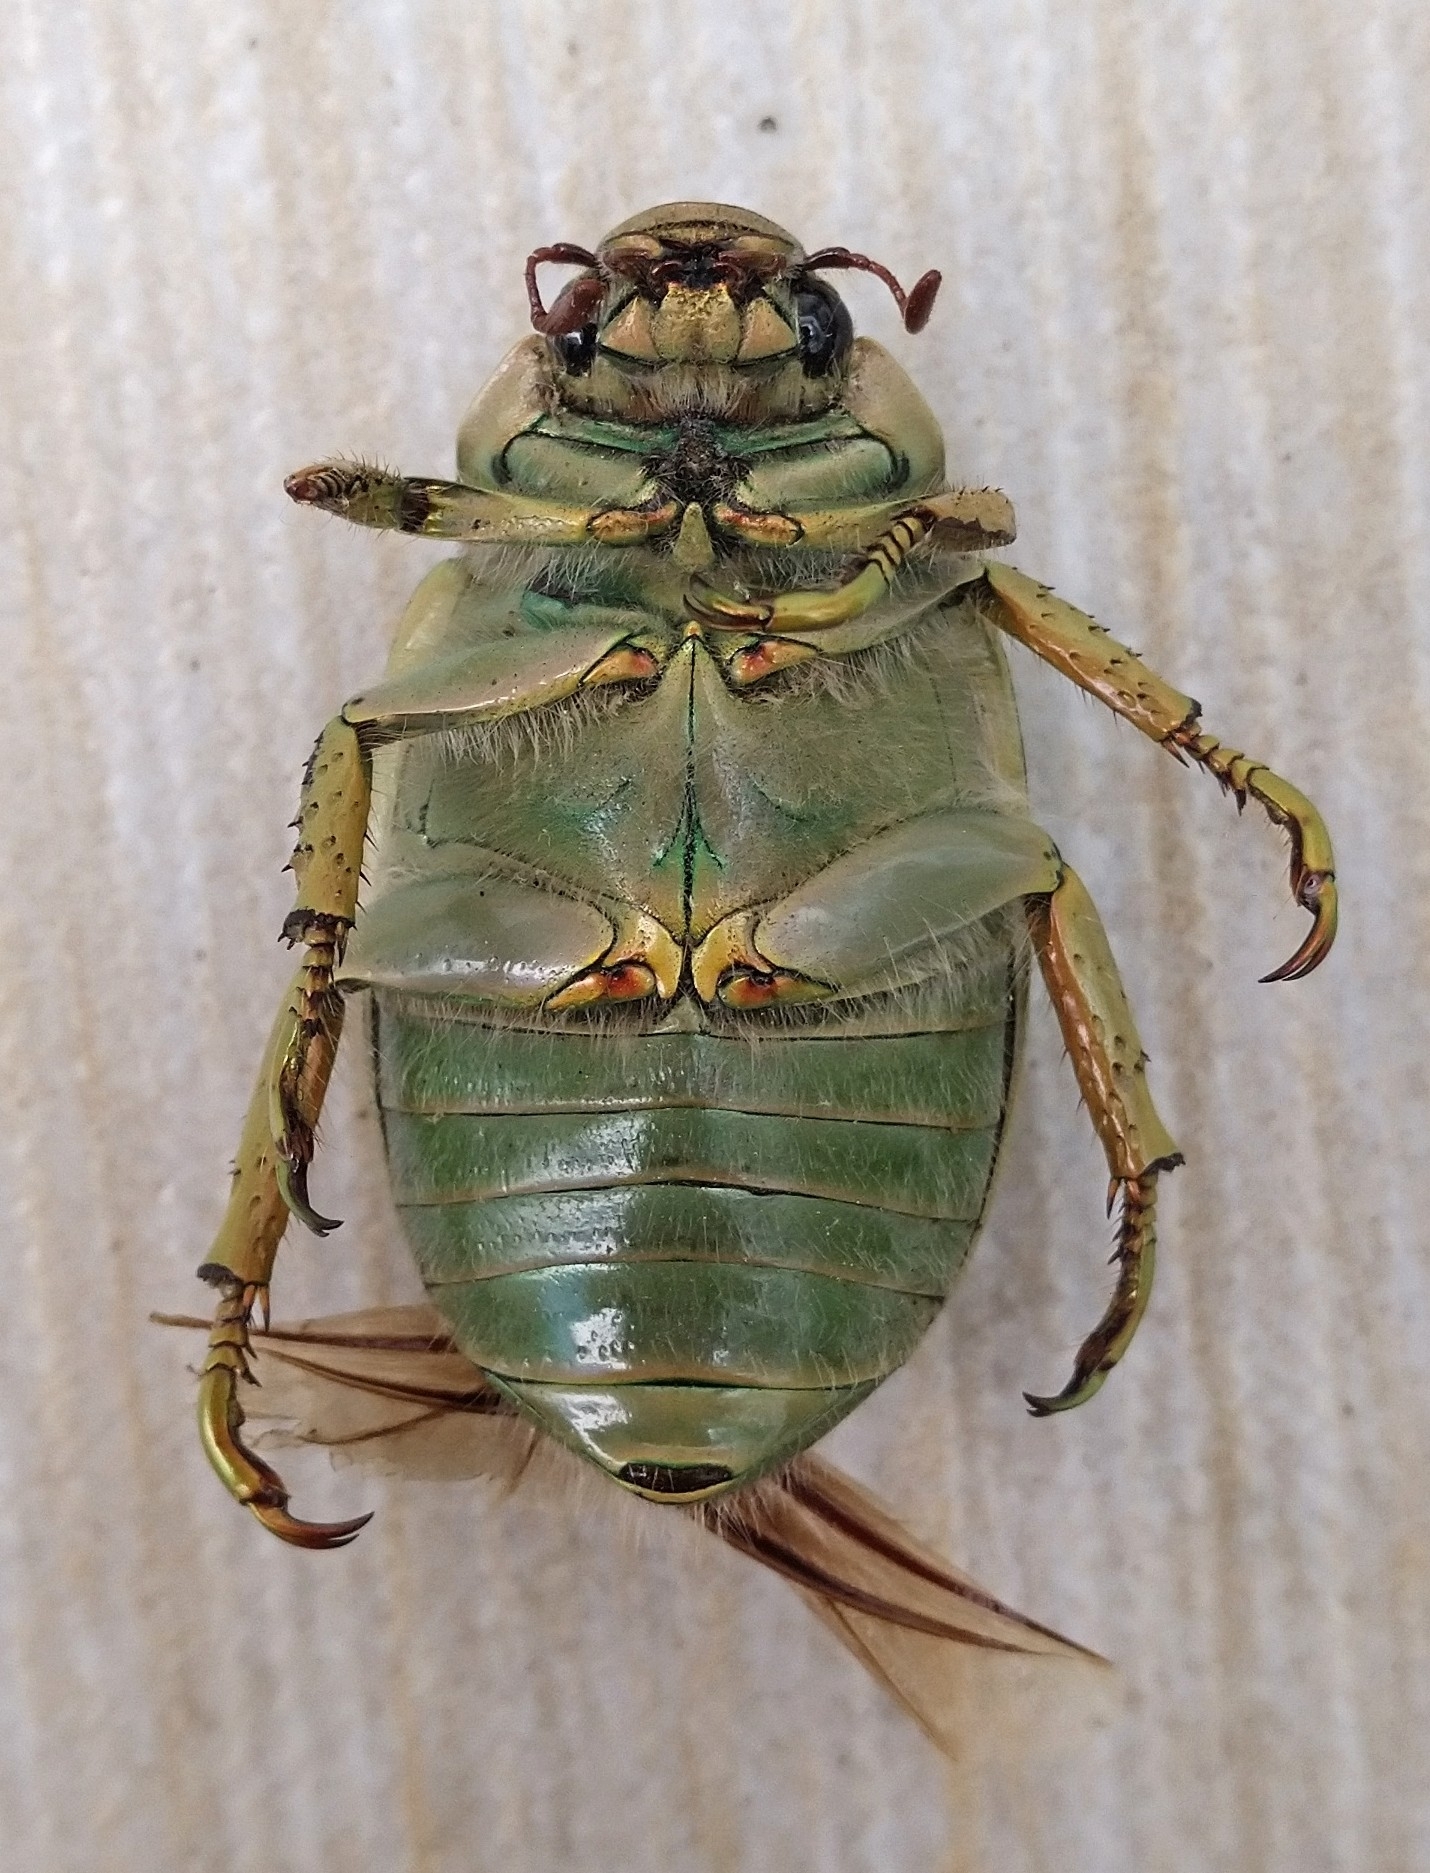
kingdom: Animalia
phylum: Arthropoda
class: Insecta
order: Coleoptera
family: Scarabaeidae
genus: Chrysina
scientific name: Chrysina laniventris
